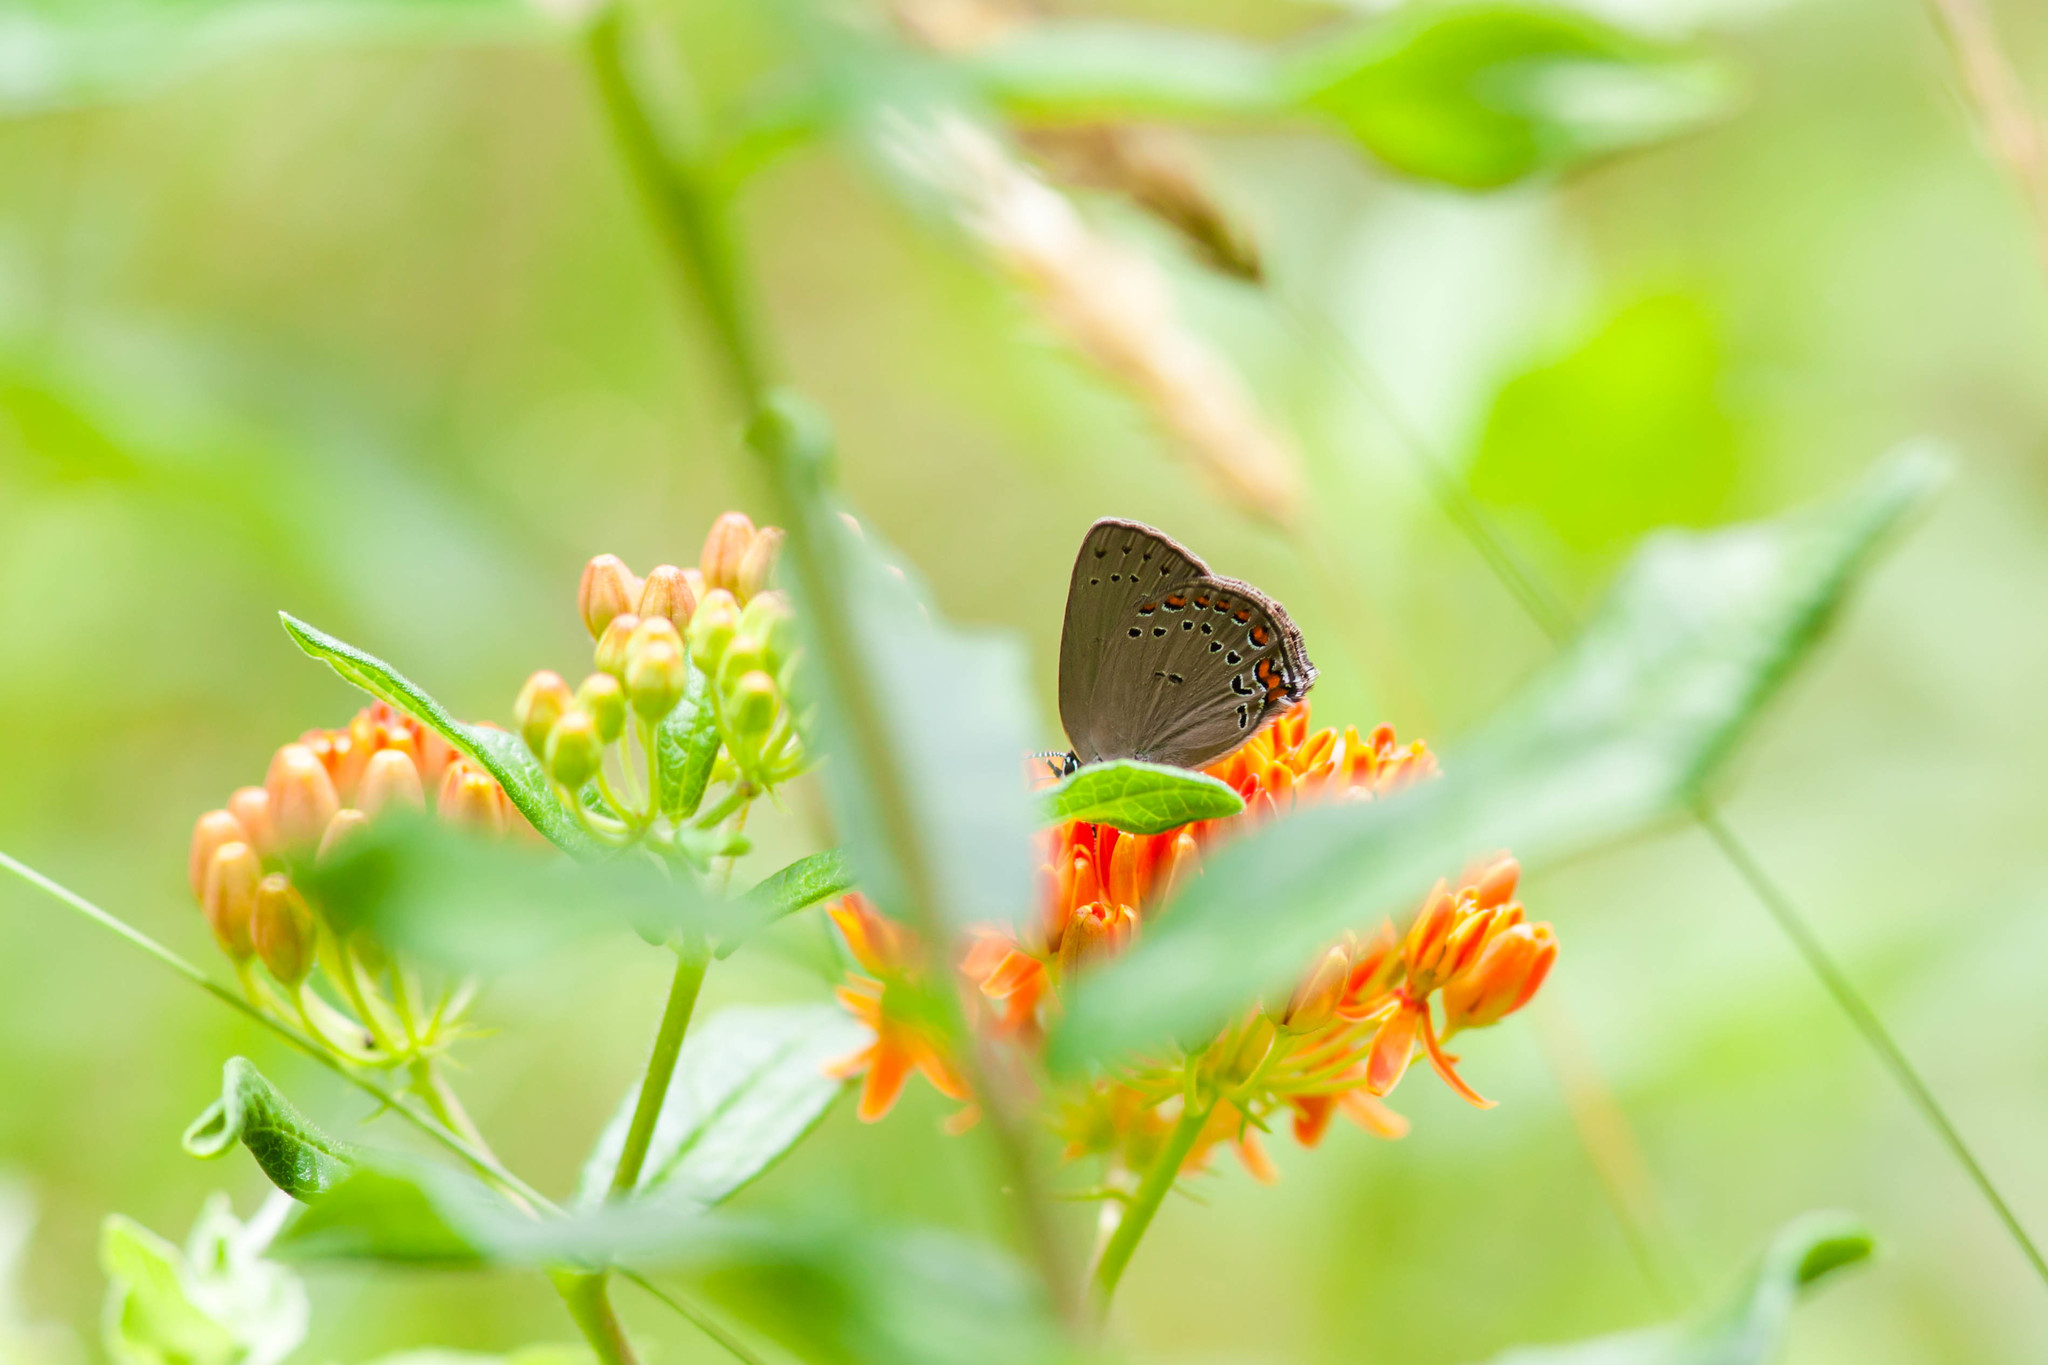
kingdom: Animalia
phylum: Arthropoda
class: Insecta
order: Lepidoptera
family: Lycaenidae
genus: Harkenclenus
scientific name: Harkenclenus titus
